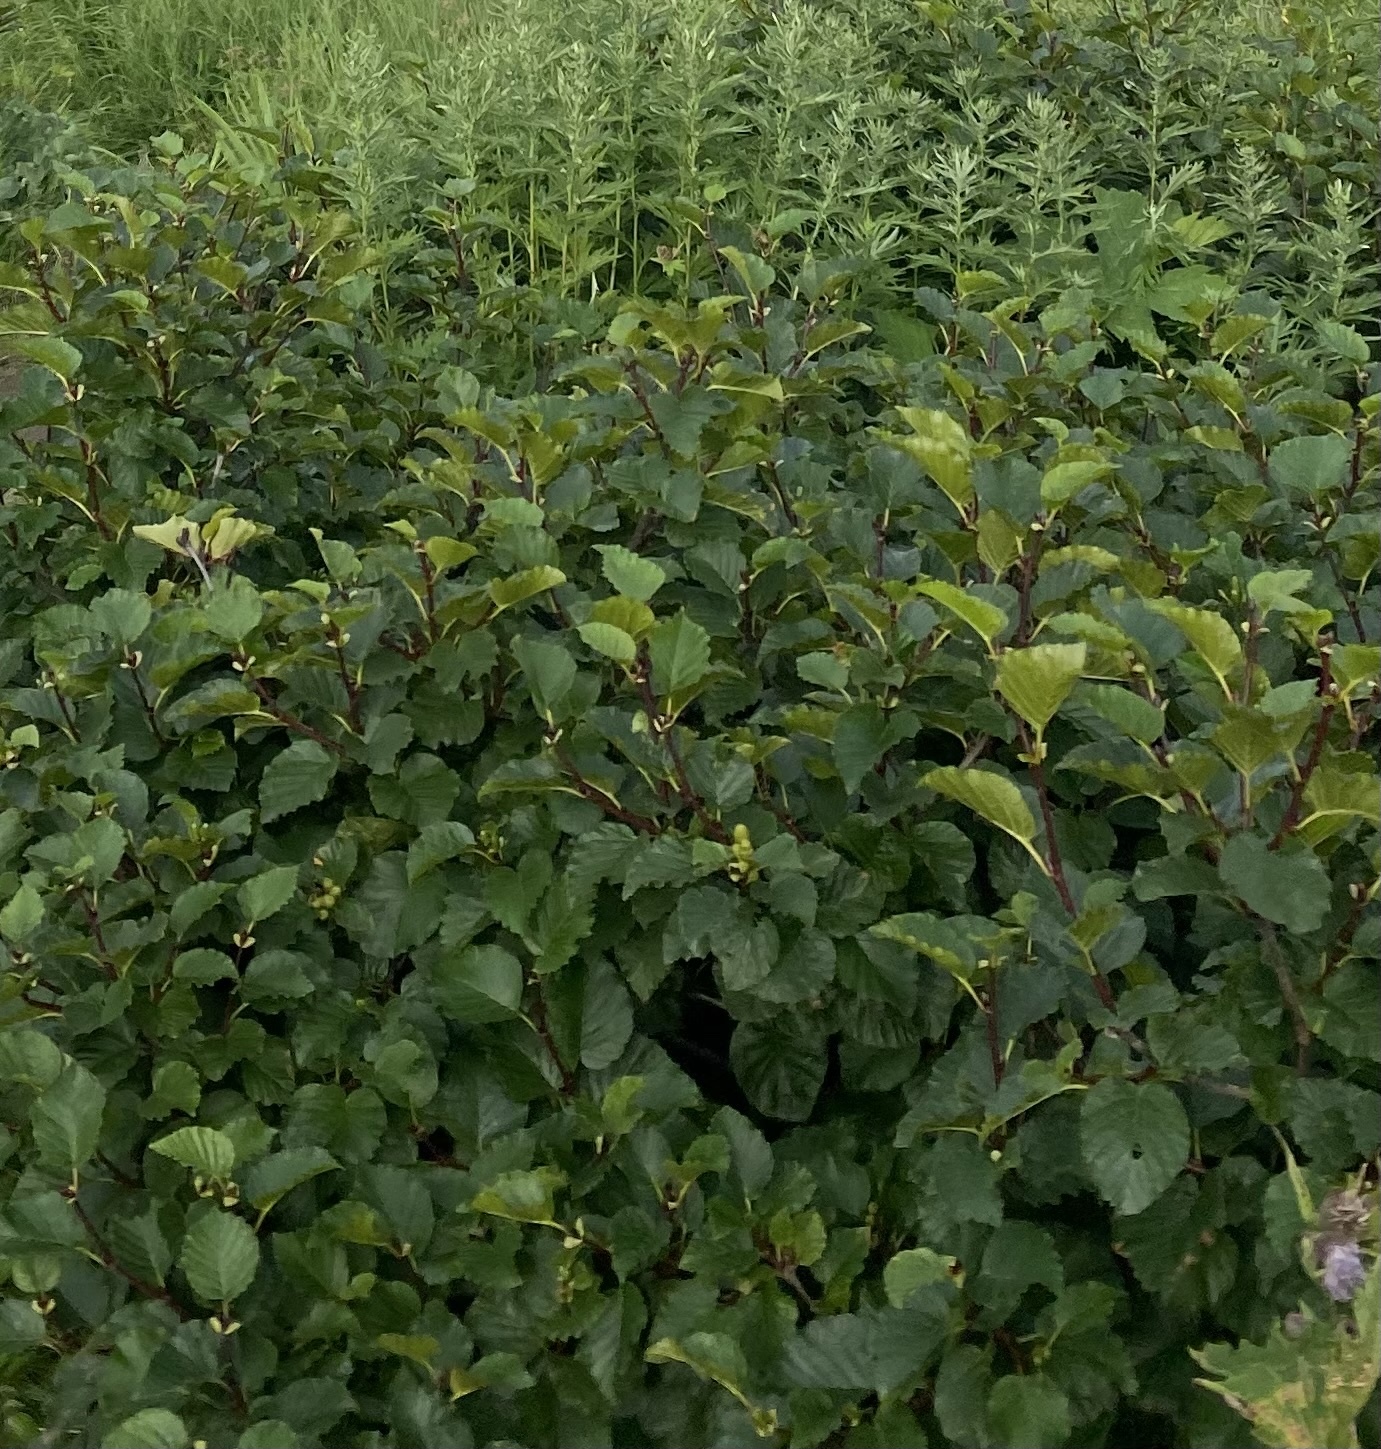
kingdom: Plantae
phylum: Tracheophyta
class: Magnoliopsida
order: Fagales
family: Betulaceae
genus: Alnus
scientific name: Alnus alnobetula
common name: Green alder
